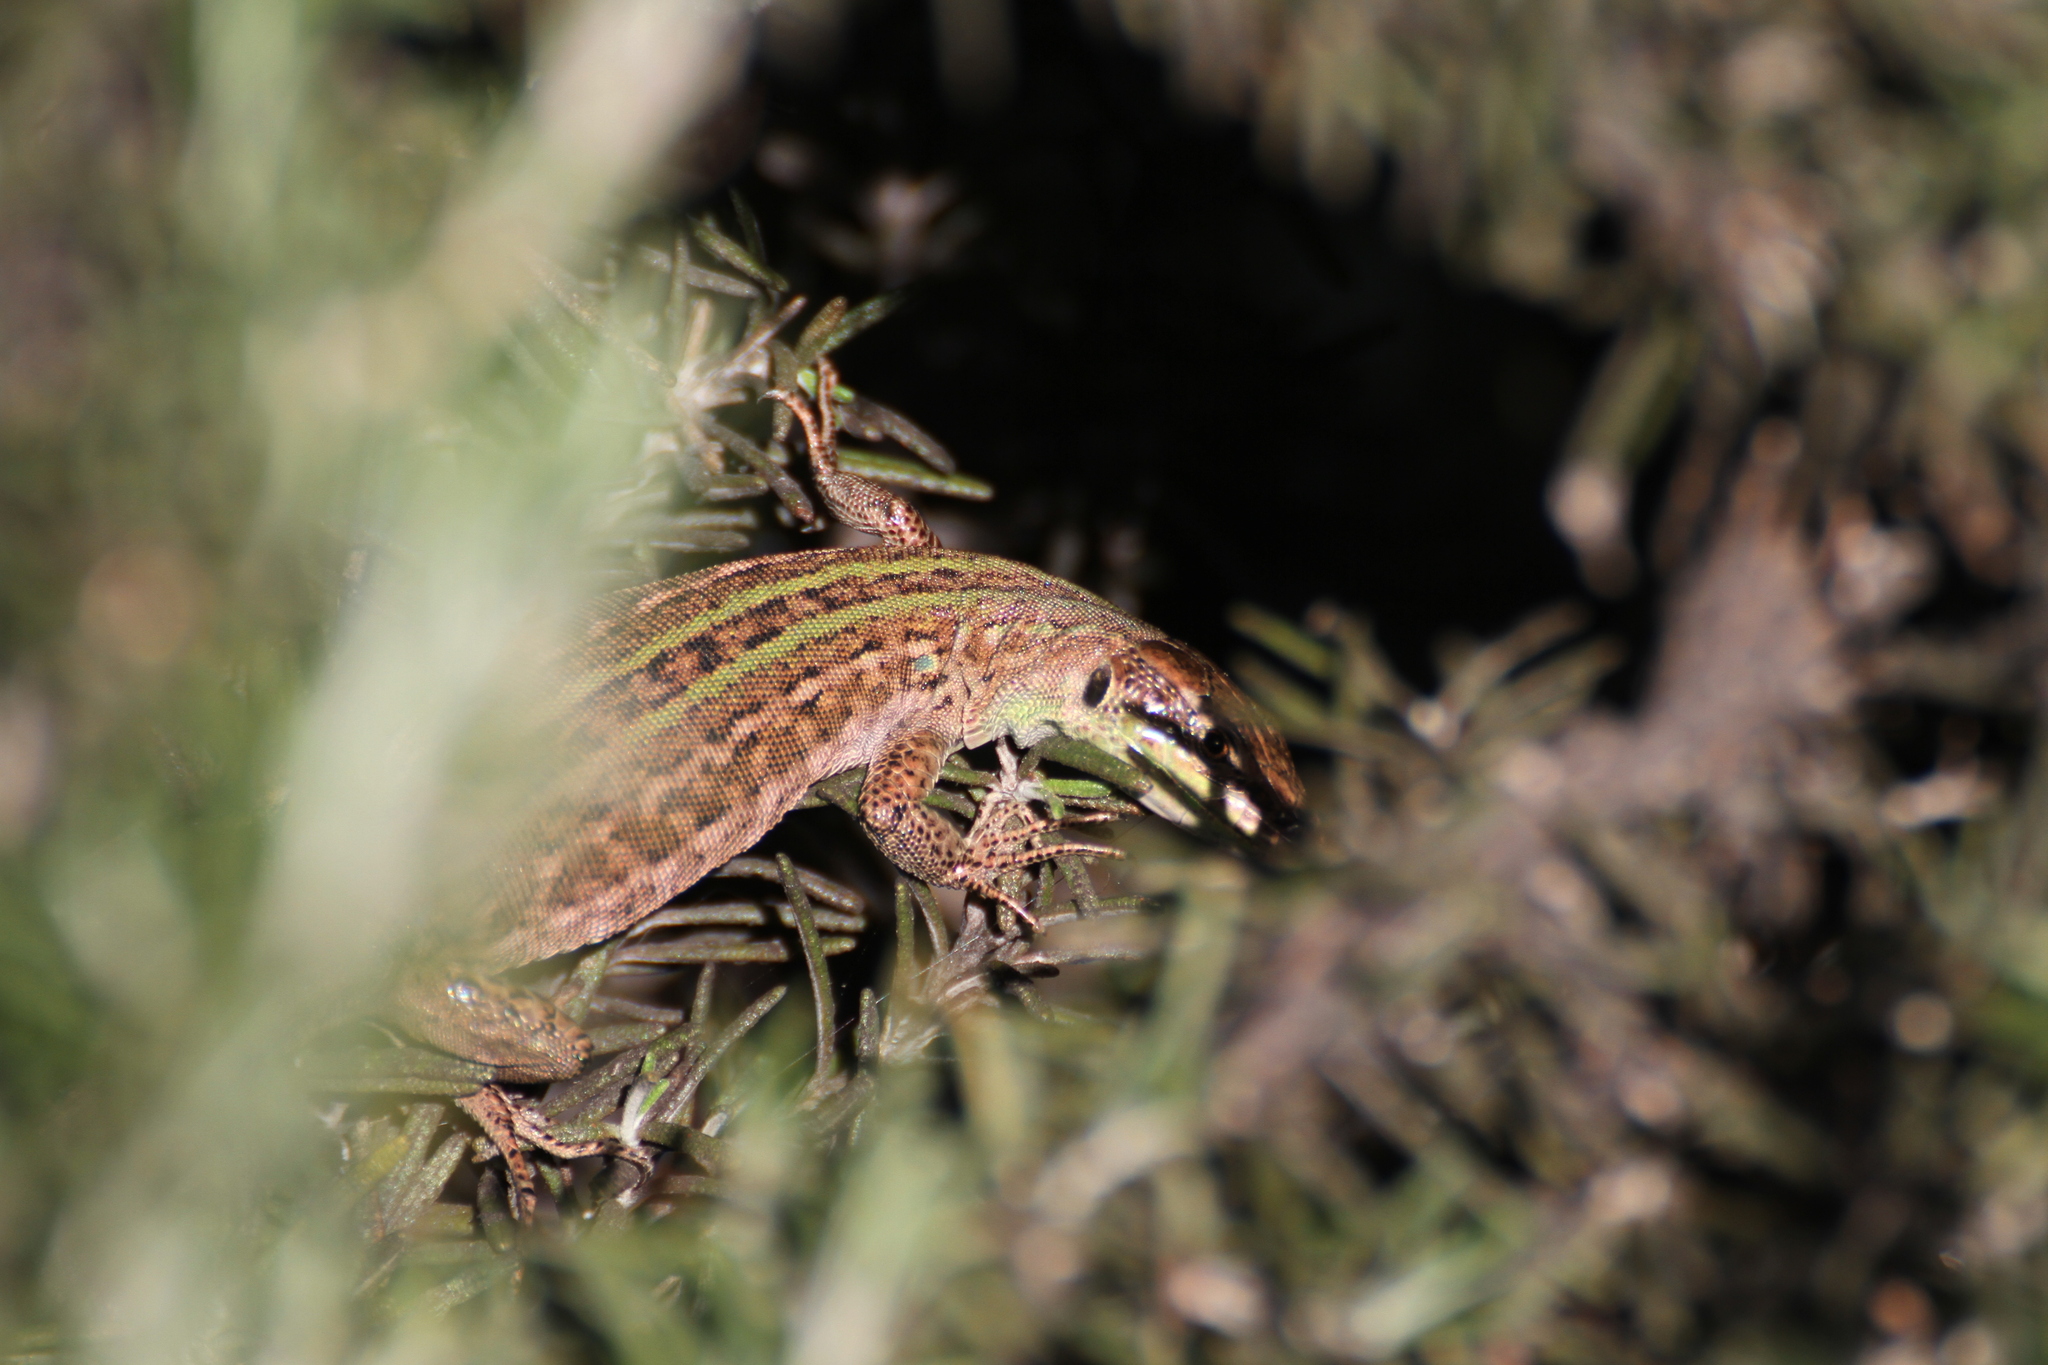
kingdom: Animalia
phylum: Chordata
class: Squamata
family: Lacertidae
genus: Podarcis
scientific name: Podarcis siculus
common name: Italian wall lizard
